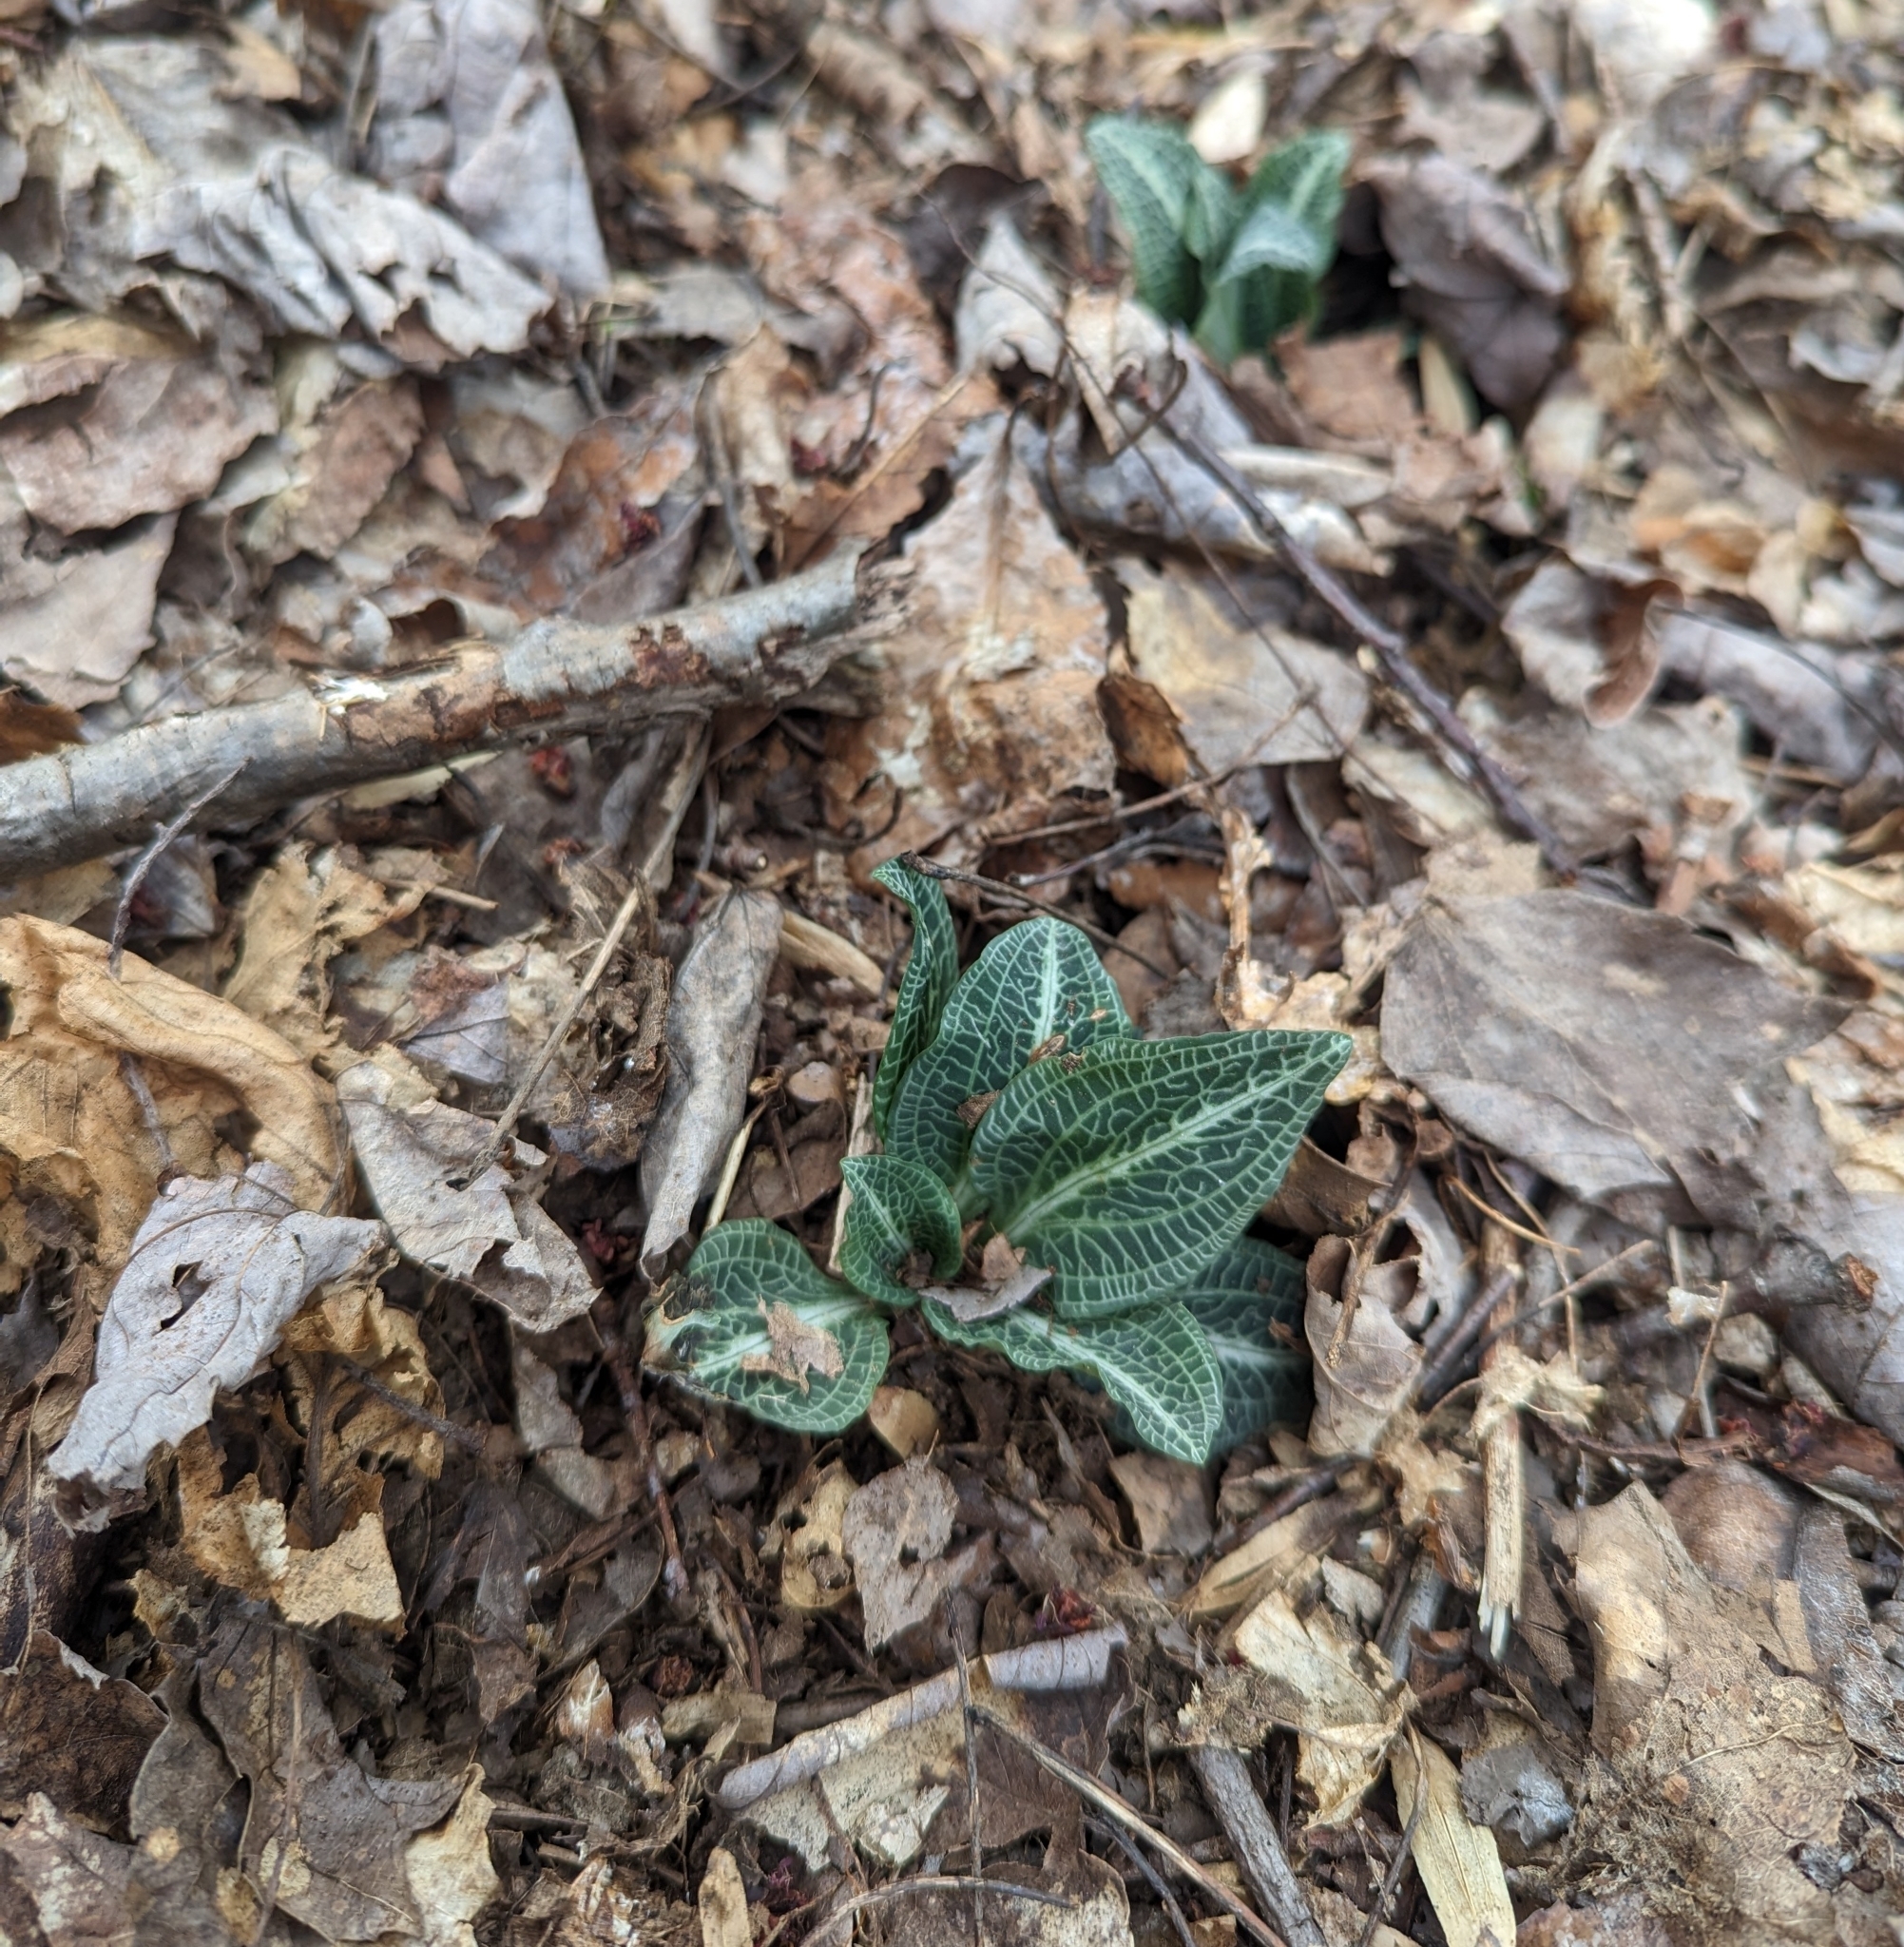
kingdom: Plantae
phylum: Tracheophyta
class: Liliopsida
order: Asparagales
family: Orchidaceae
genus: Goodyera
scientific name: Goodyera pubescens
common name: Downy rattlesnake-plantain
